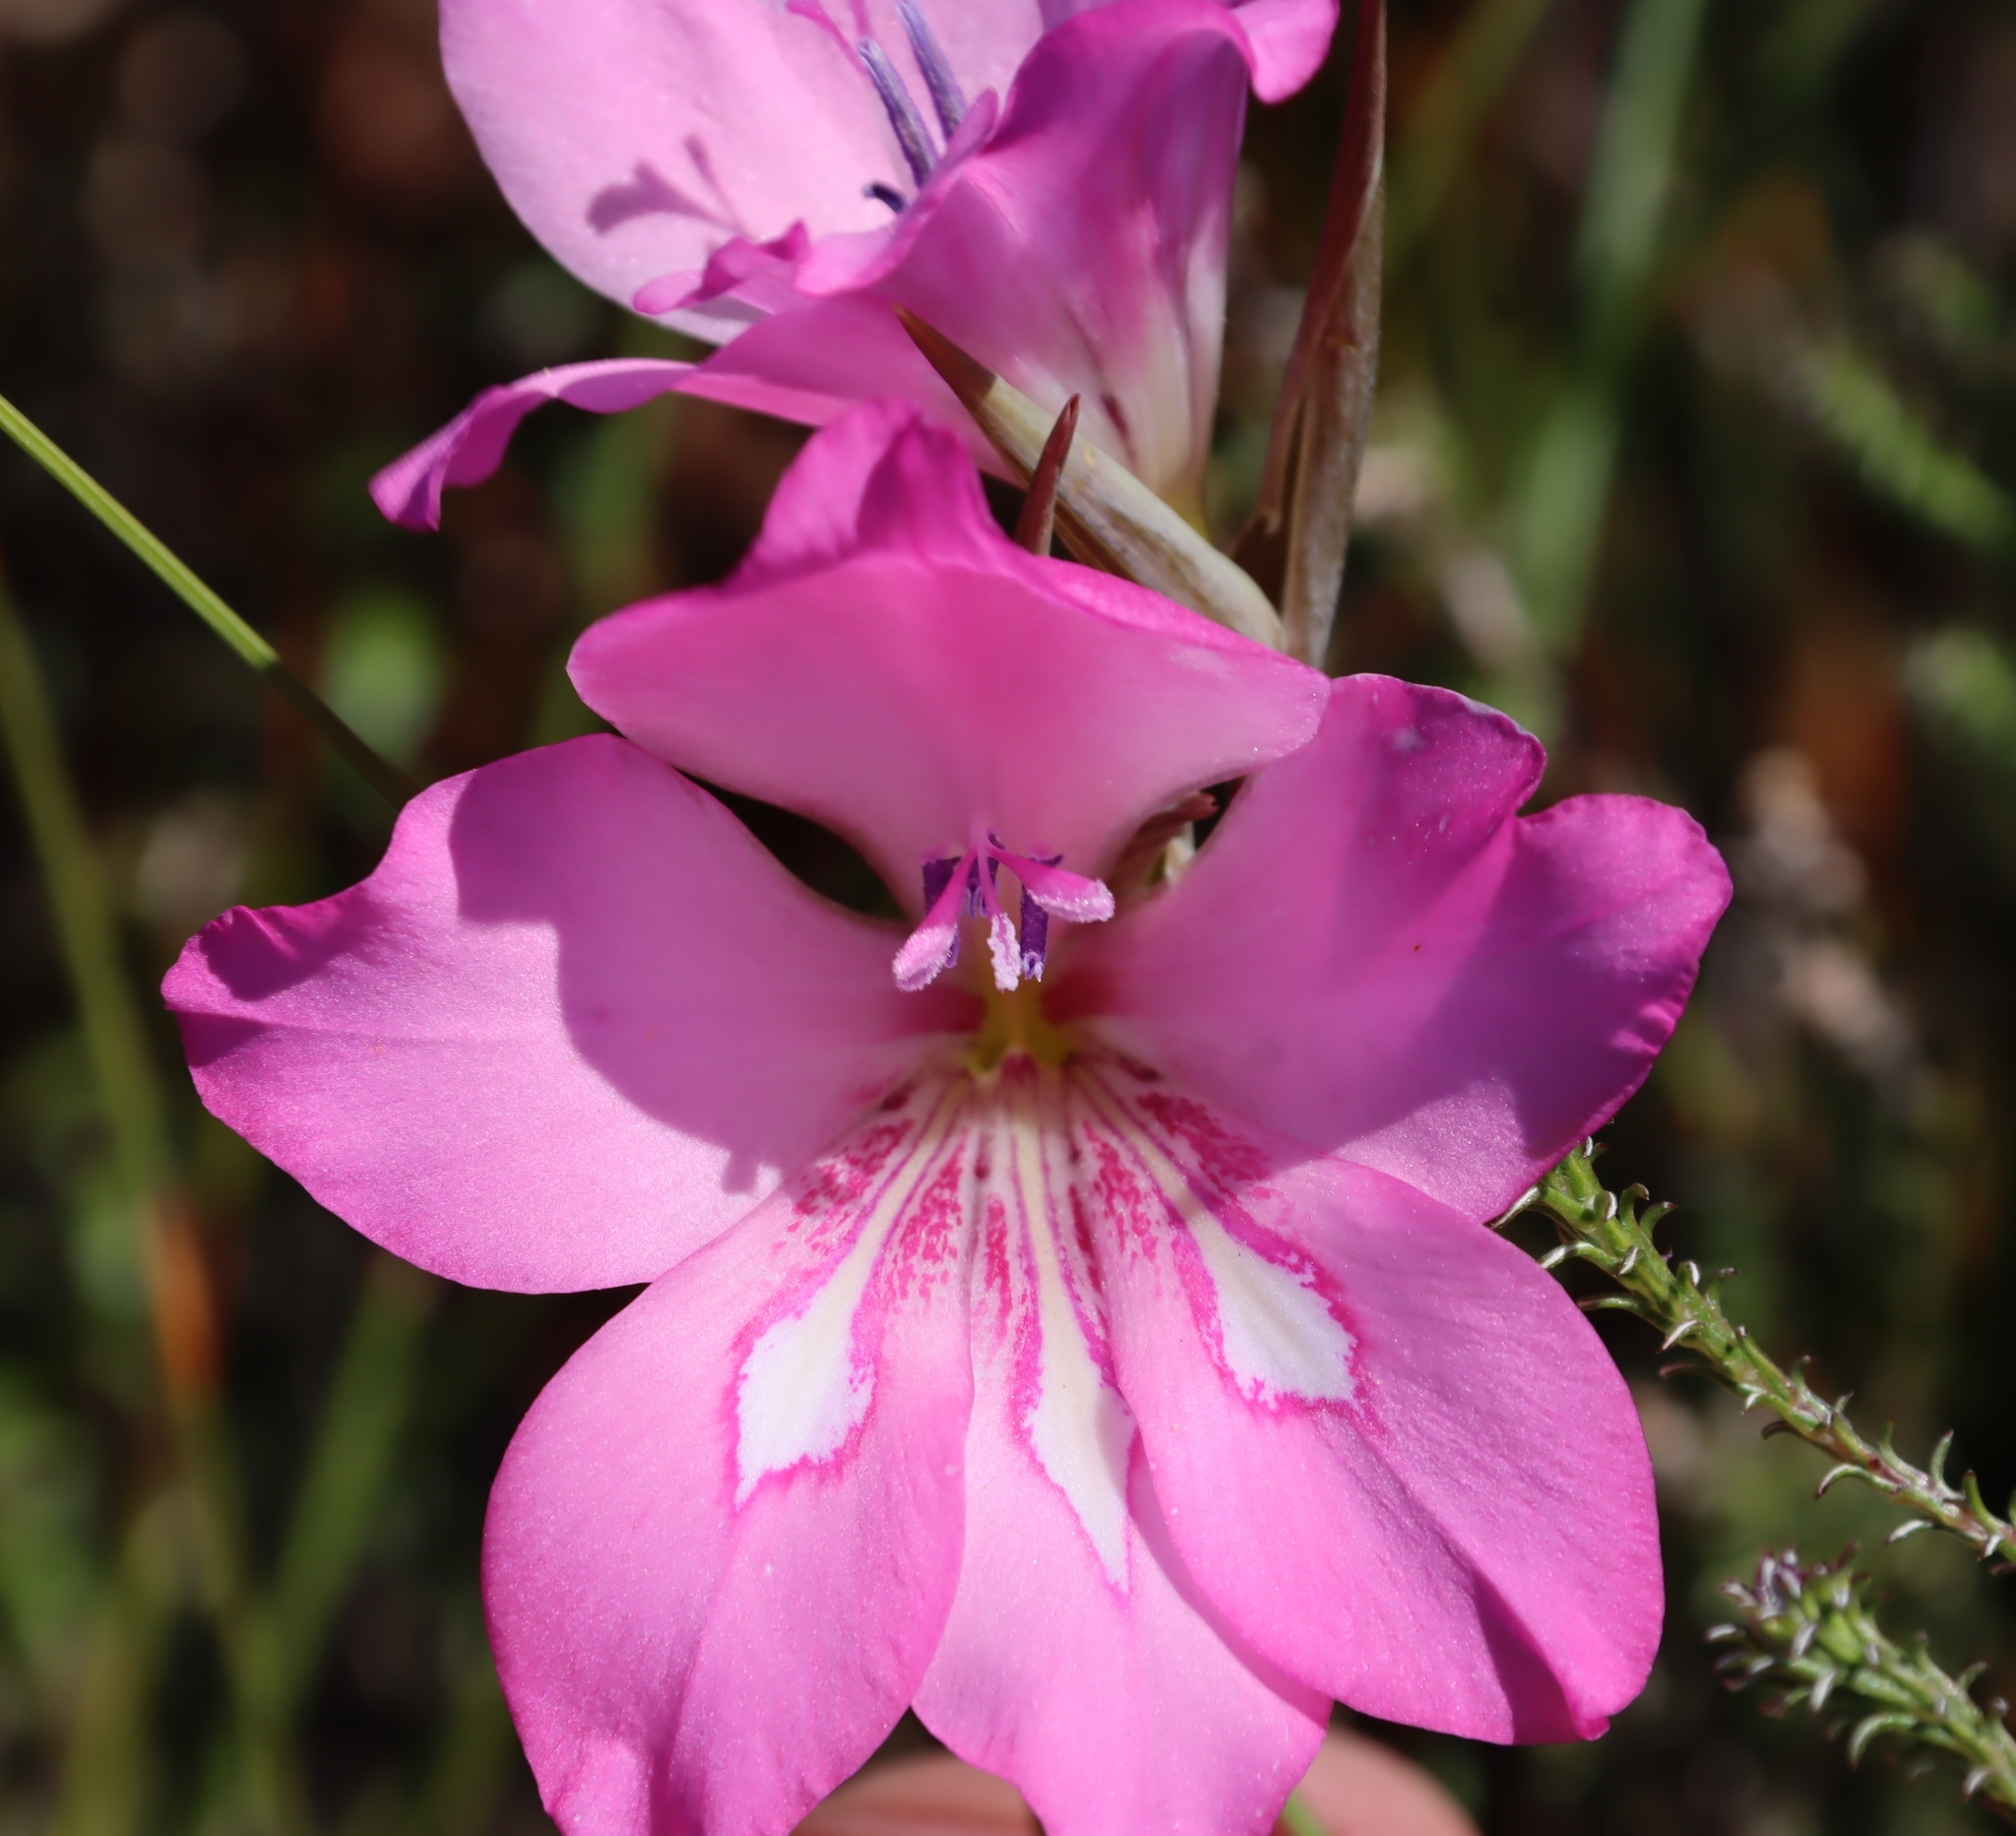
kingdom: Plantae
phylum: Tracheophyta
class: Liliopsida
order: Asparagales
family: Iridaceae
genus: Gladiolus
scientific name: Gladiolus ornatus
